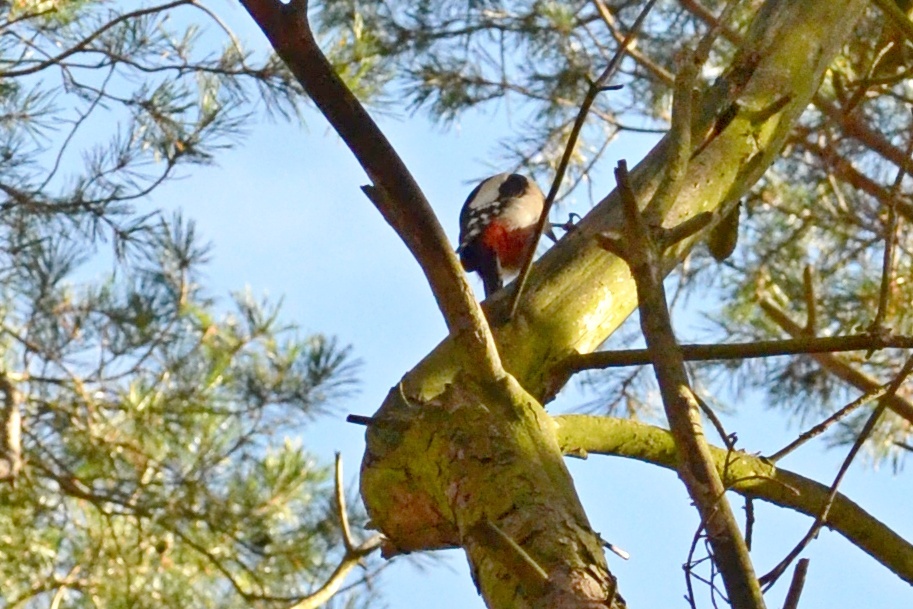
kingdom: Animalia
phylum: Chordata
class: Aves
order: Piciformes
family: Picidae
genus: Dendrocopos
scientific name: Dendrocopos major
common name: Great spotted woodpecker
